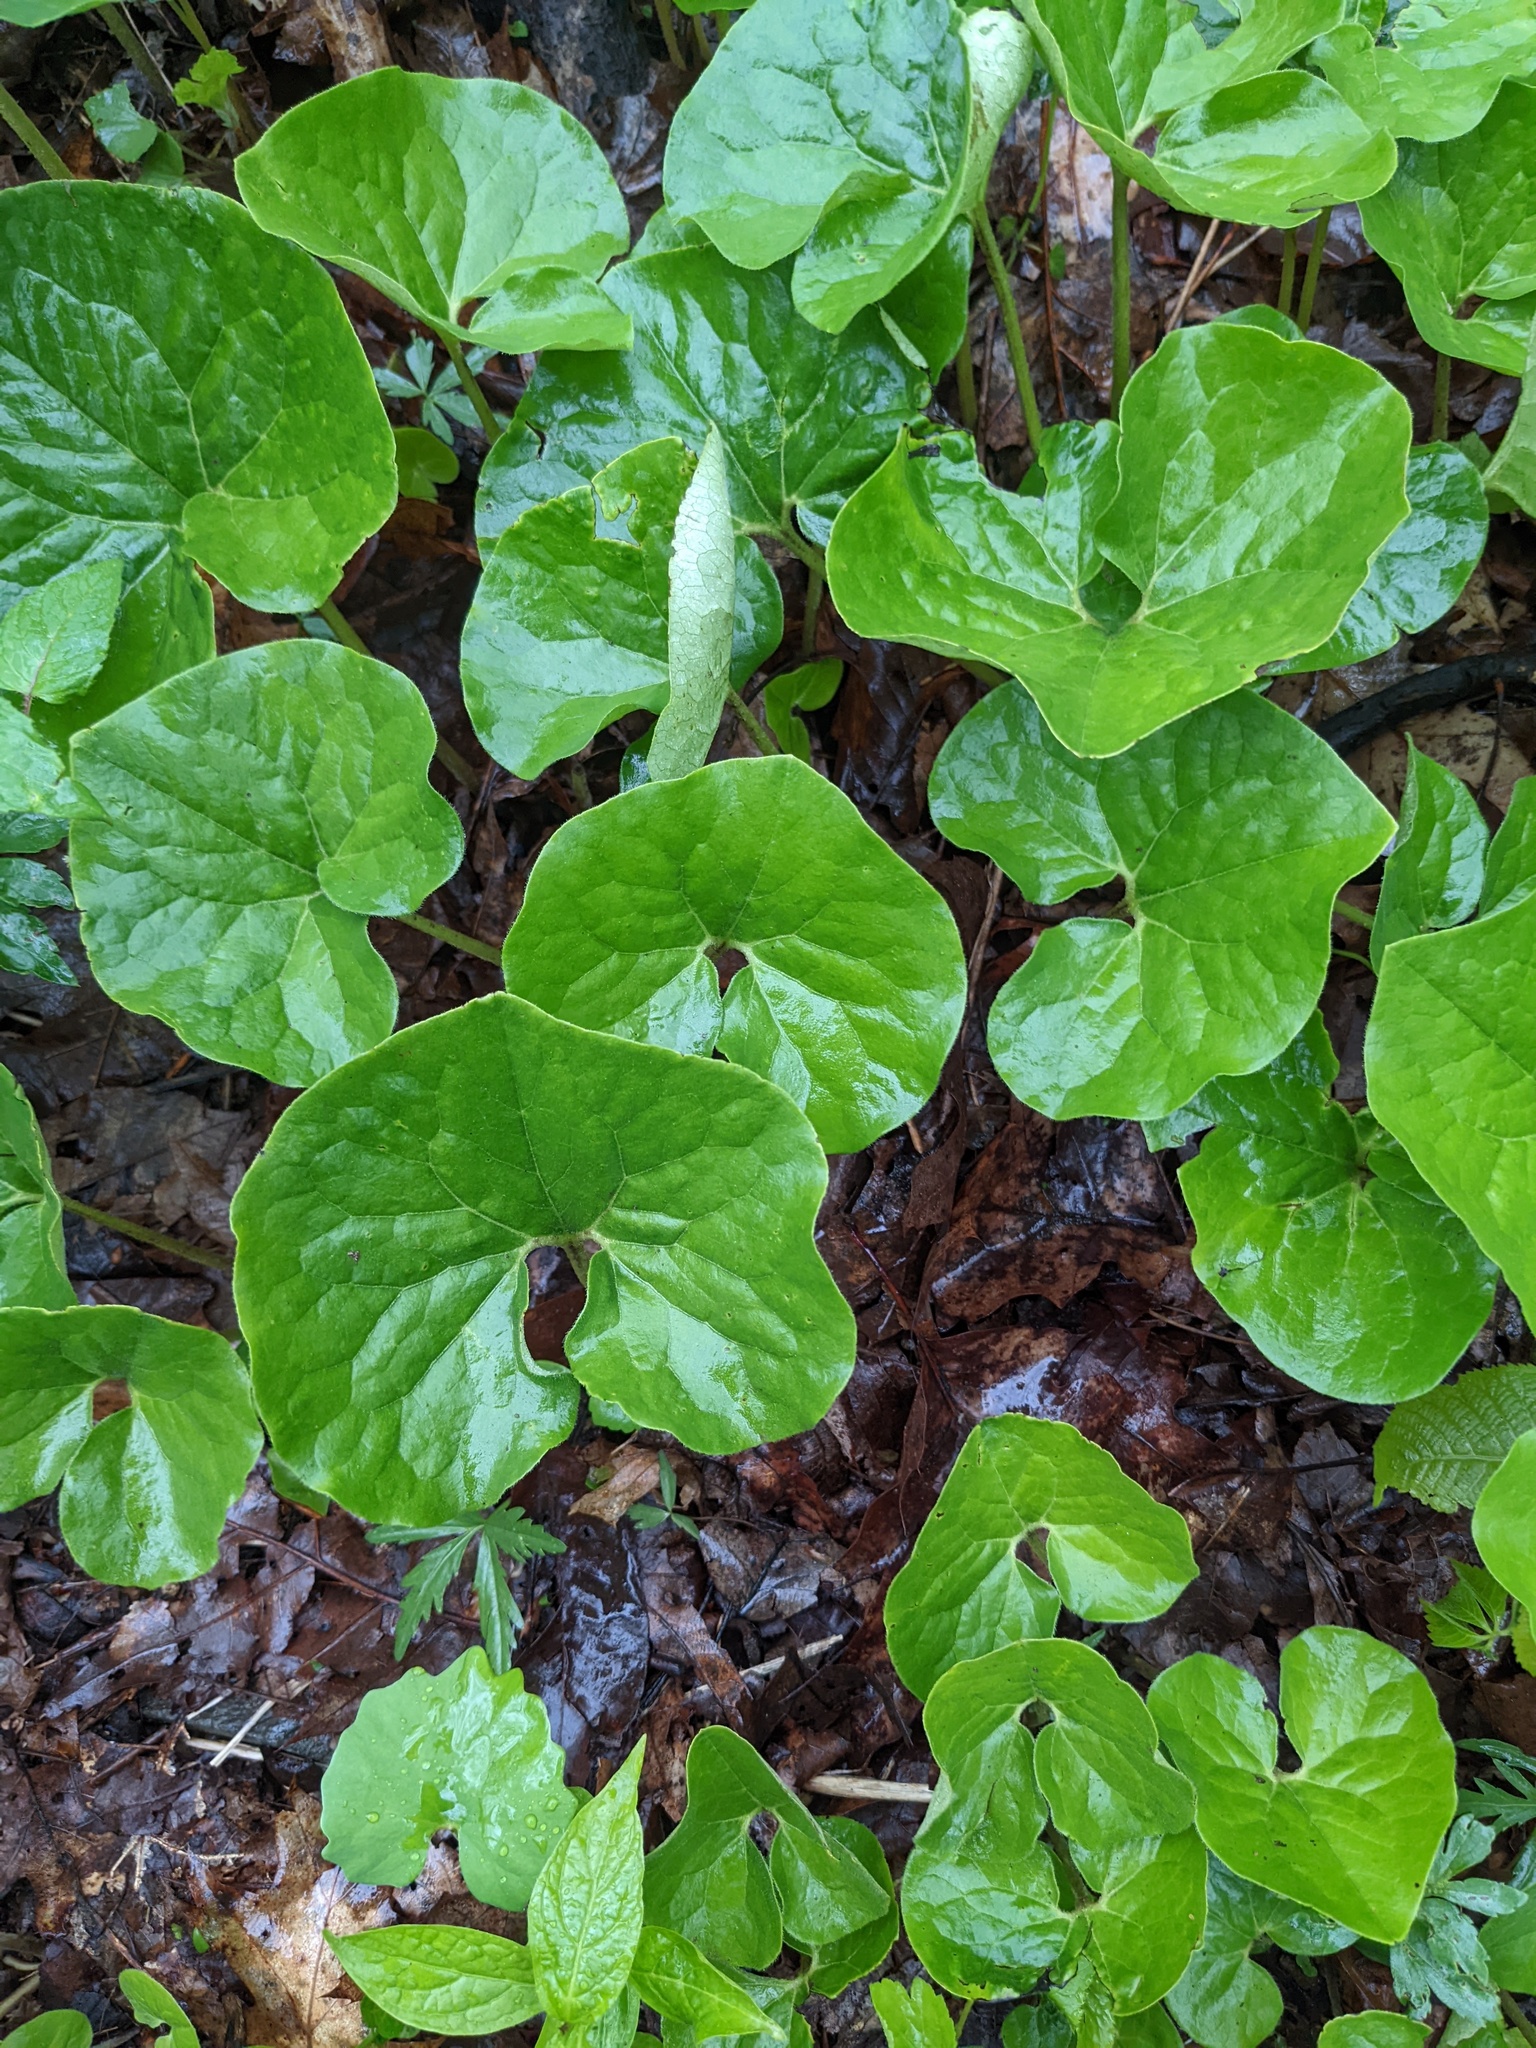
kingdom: Plantae
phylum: Tracheophyta
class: Magnoliopsida
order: Piperales
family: Aristolochiaceae
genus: Asarum
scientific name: Asarum canadense
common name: Wild ginger
